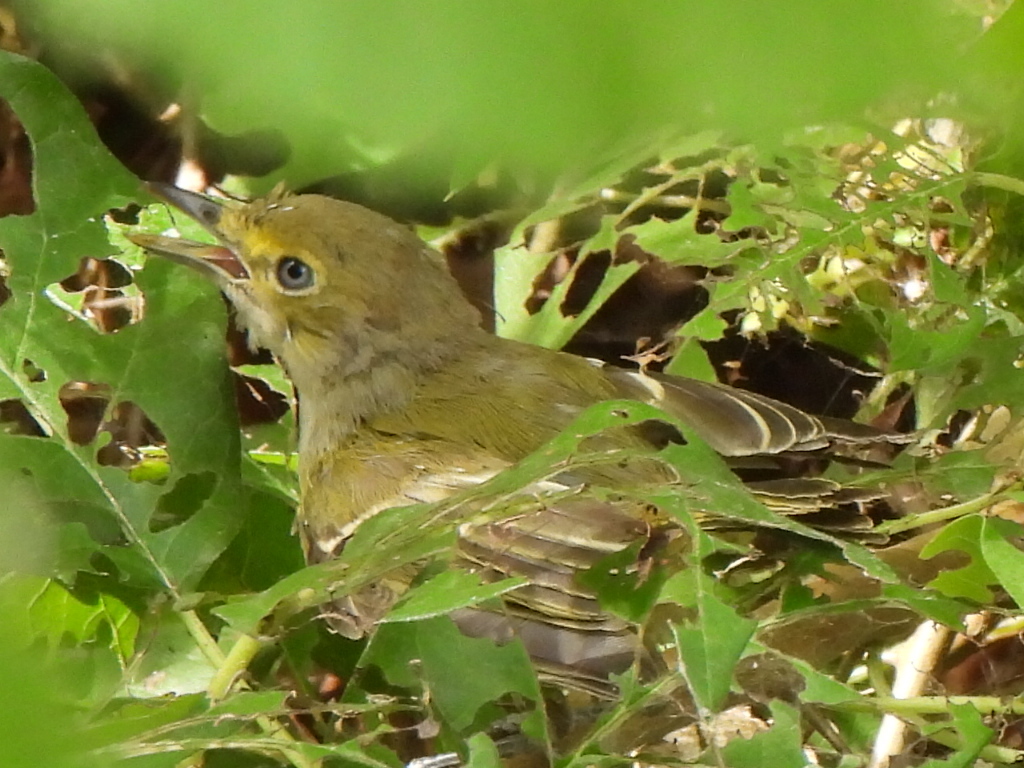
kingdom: Animalia
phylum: Chordata
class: Aves
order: Passeriformes
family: Vireonidae
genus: Vireo
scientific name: Vireo griseus
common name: White-eyed vireo
